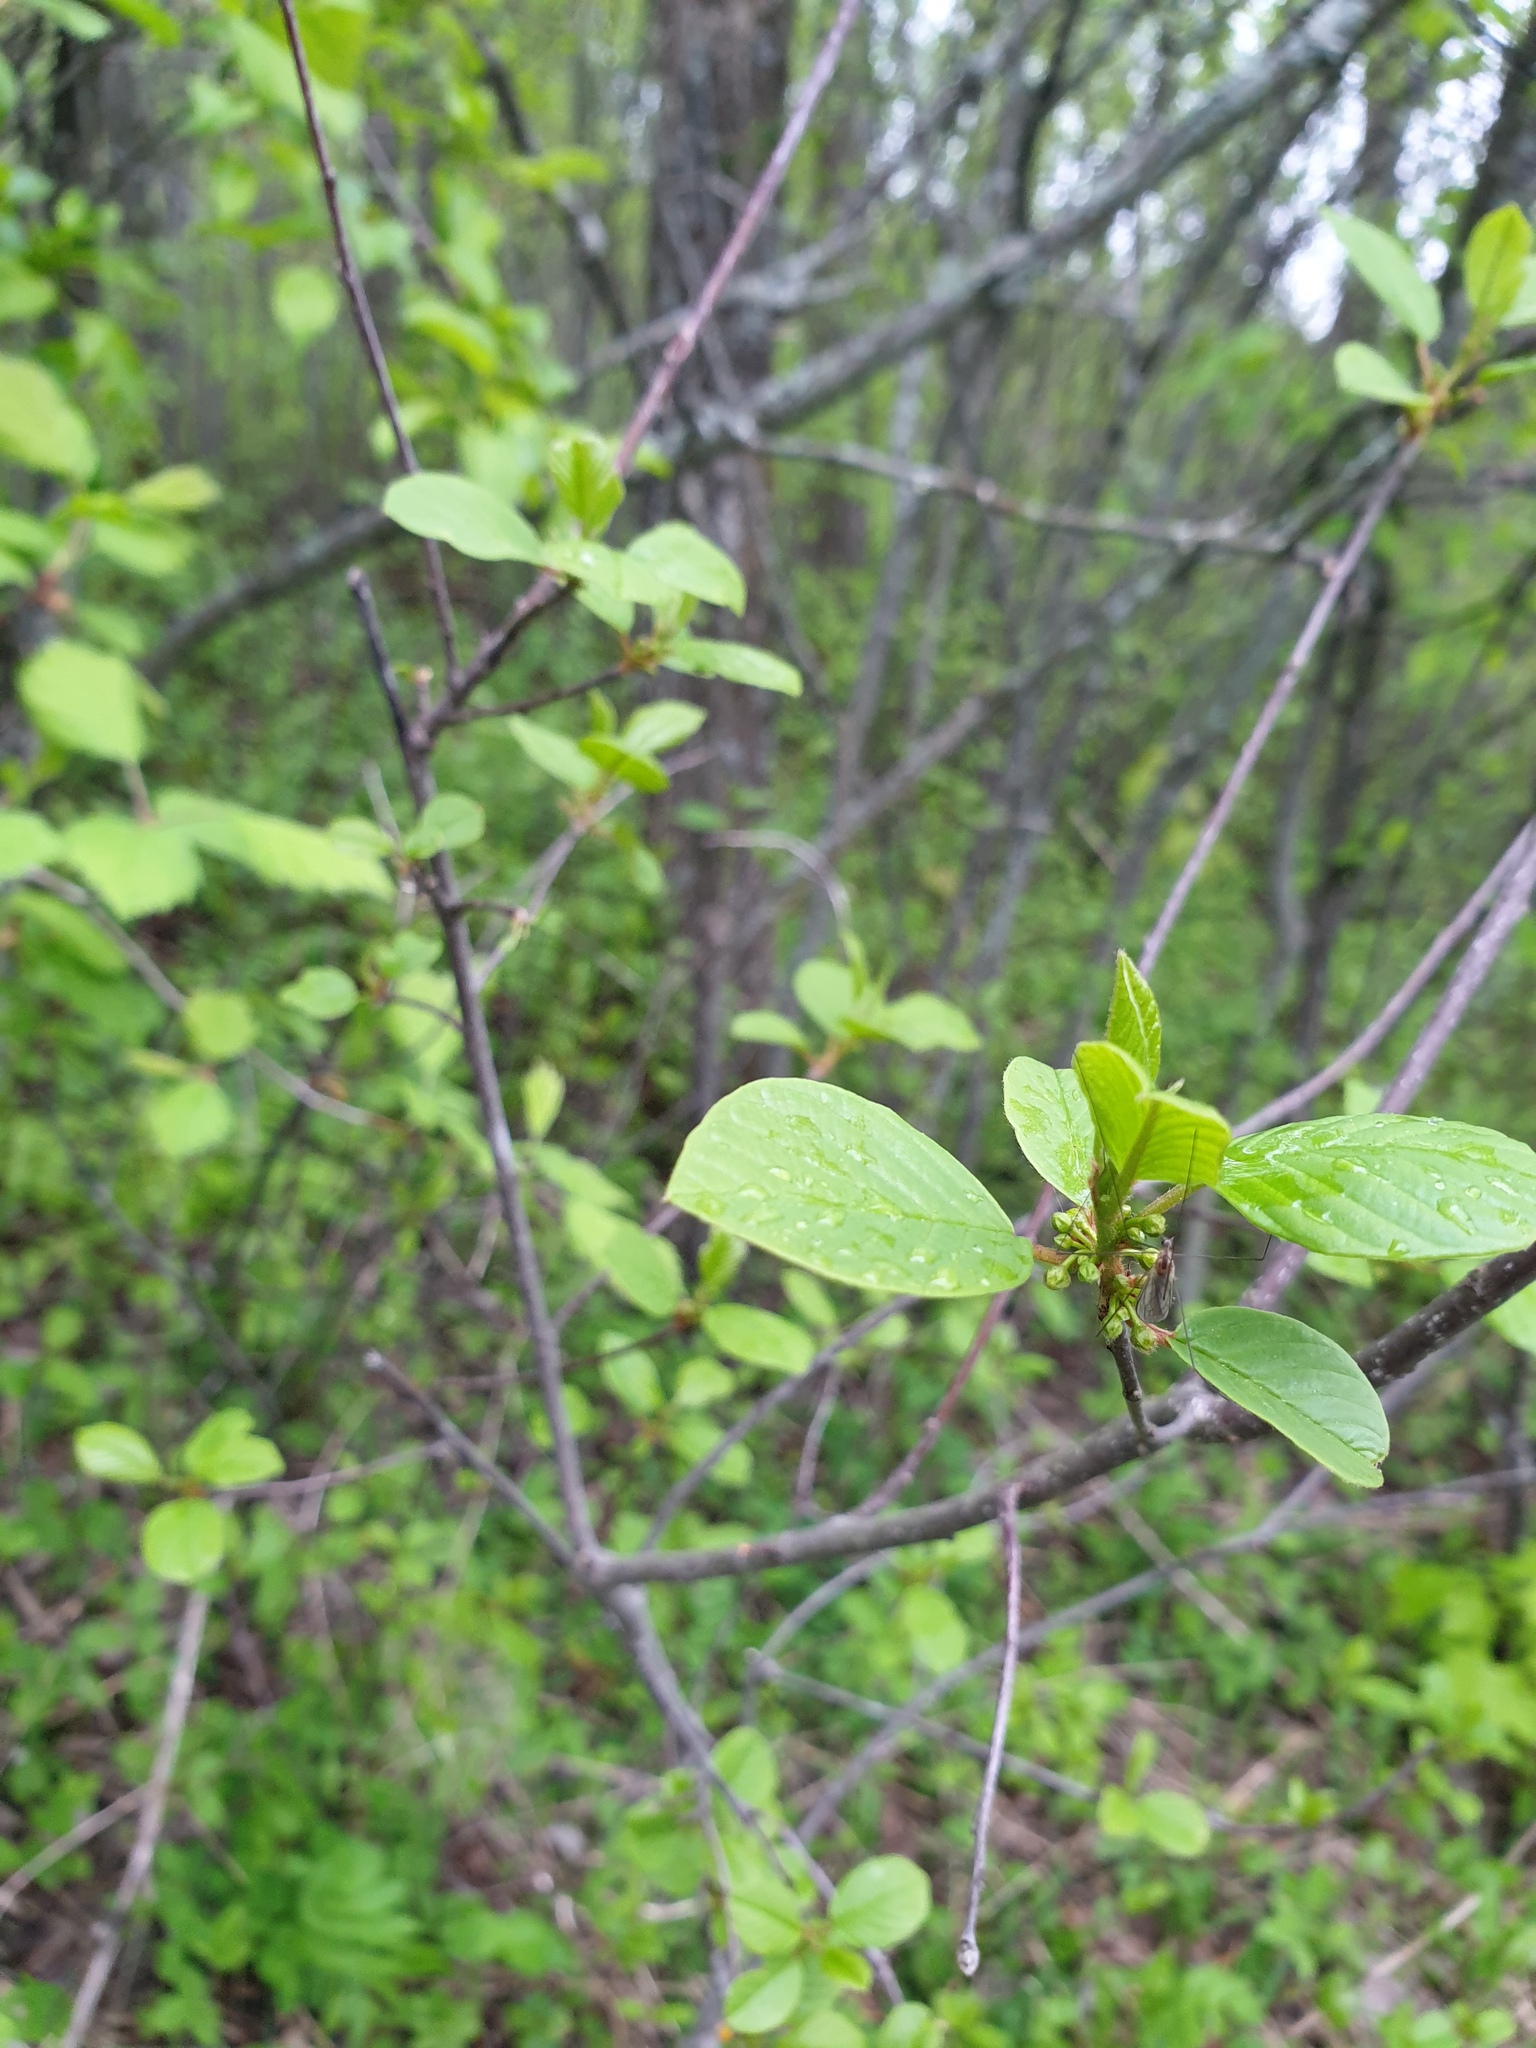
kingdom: Plantae
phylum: Tracheophyta
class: Magnoliopsida
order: Rosales
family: Rhamnaceae
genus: Frangula
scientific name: Frangula alnus
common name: Alder buckthorn
